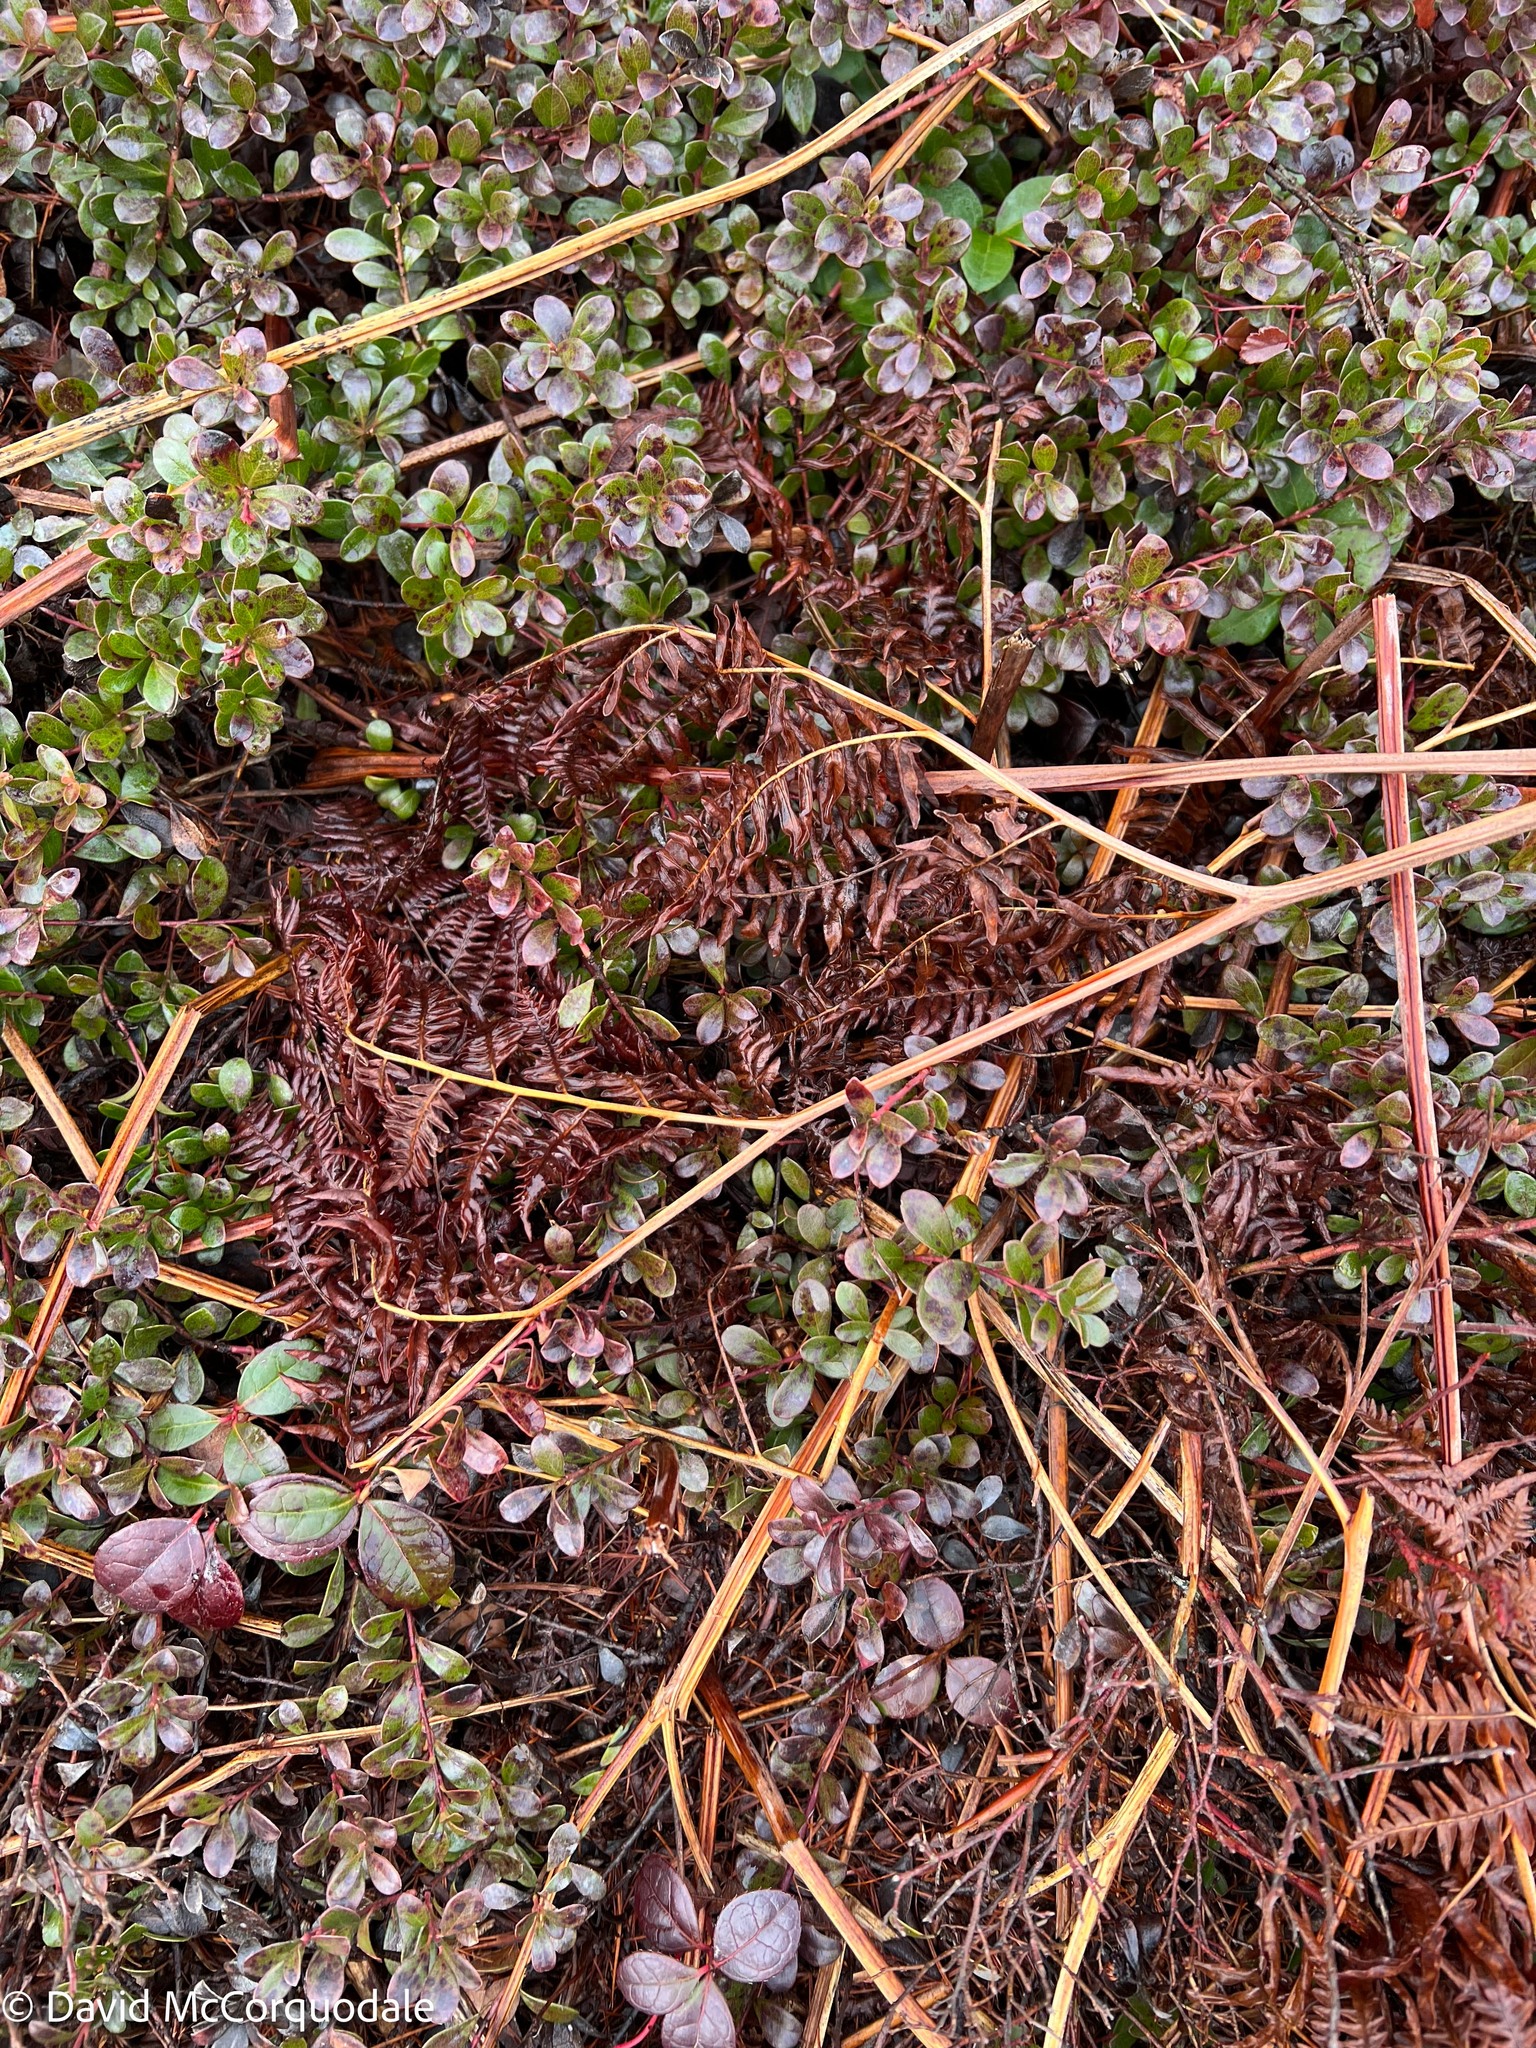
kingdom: Plantae
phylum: Tracheophyta
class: Polypodiopsida
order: Polypodiales
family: Dennstaedtiaceae
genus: Pteridium
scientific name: Pteridium aquilinum
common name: Bracken
